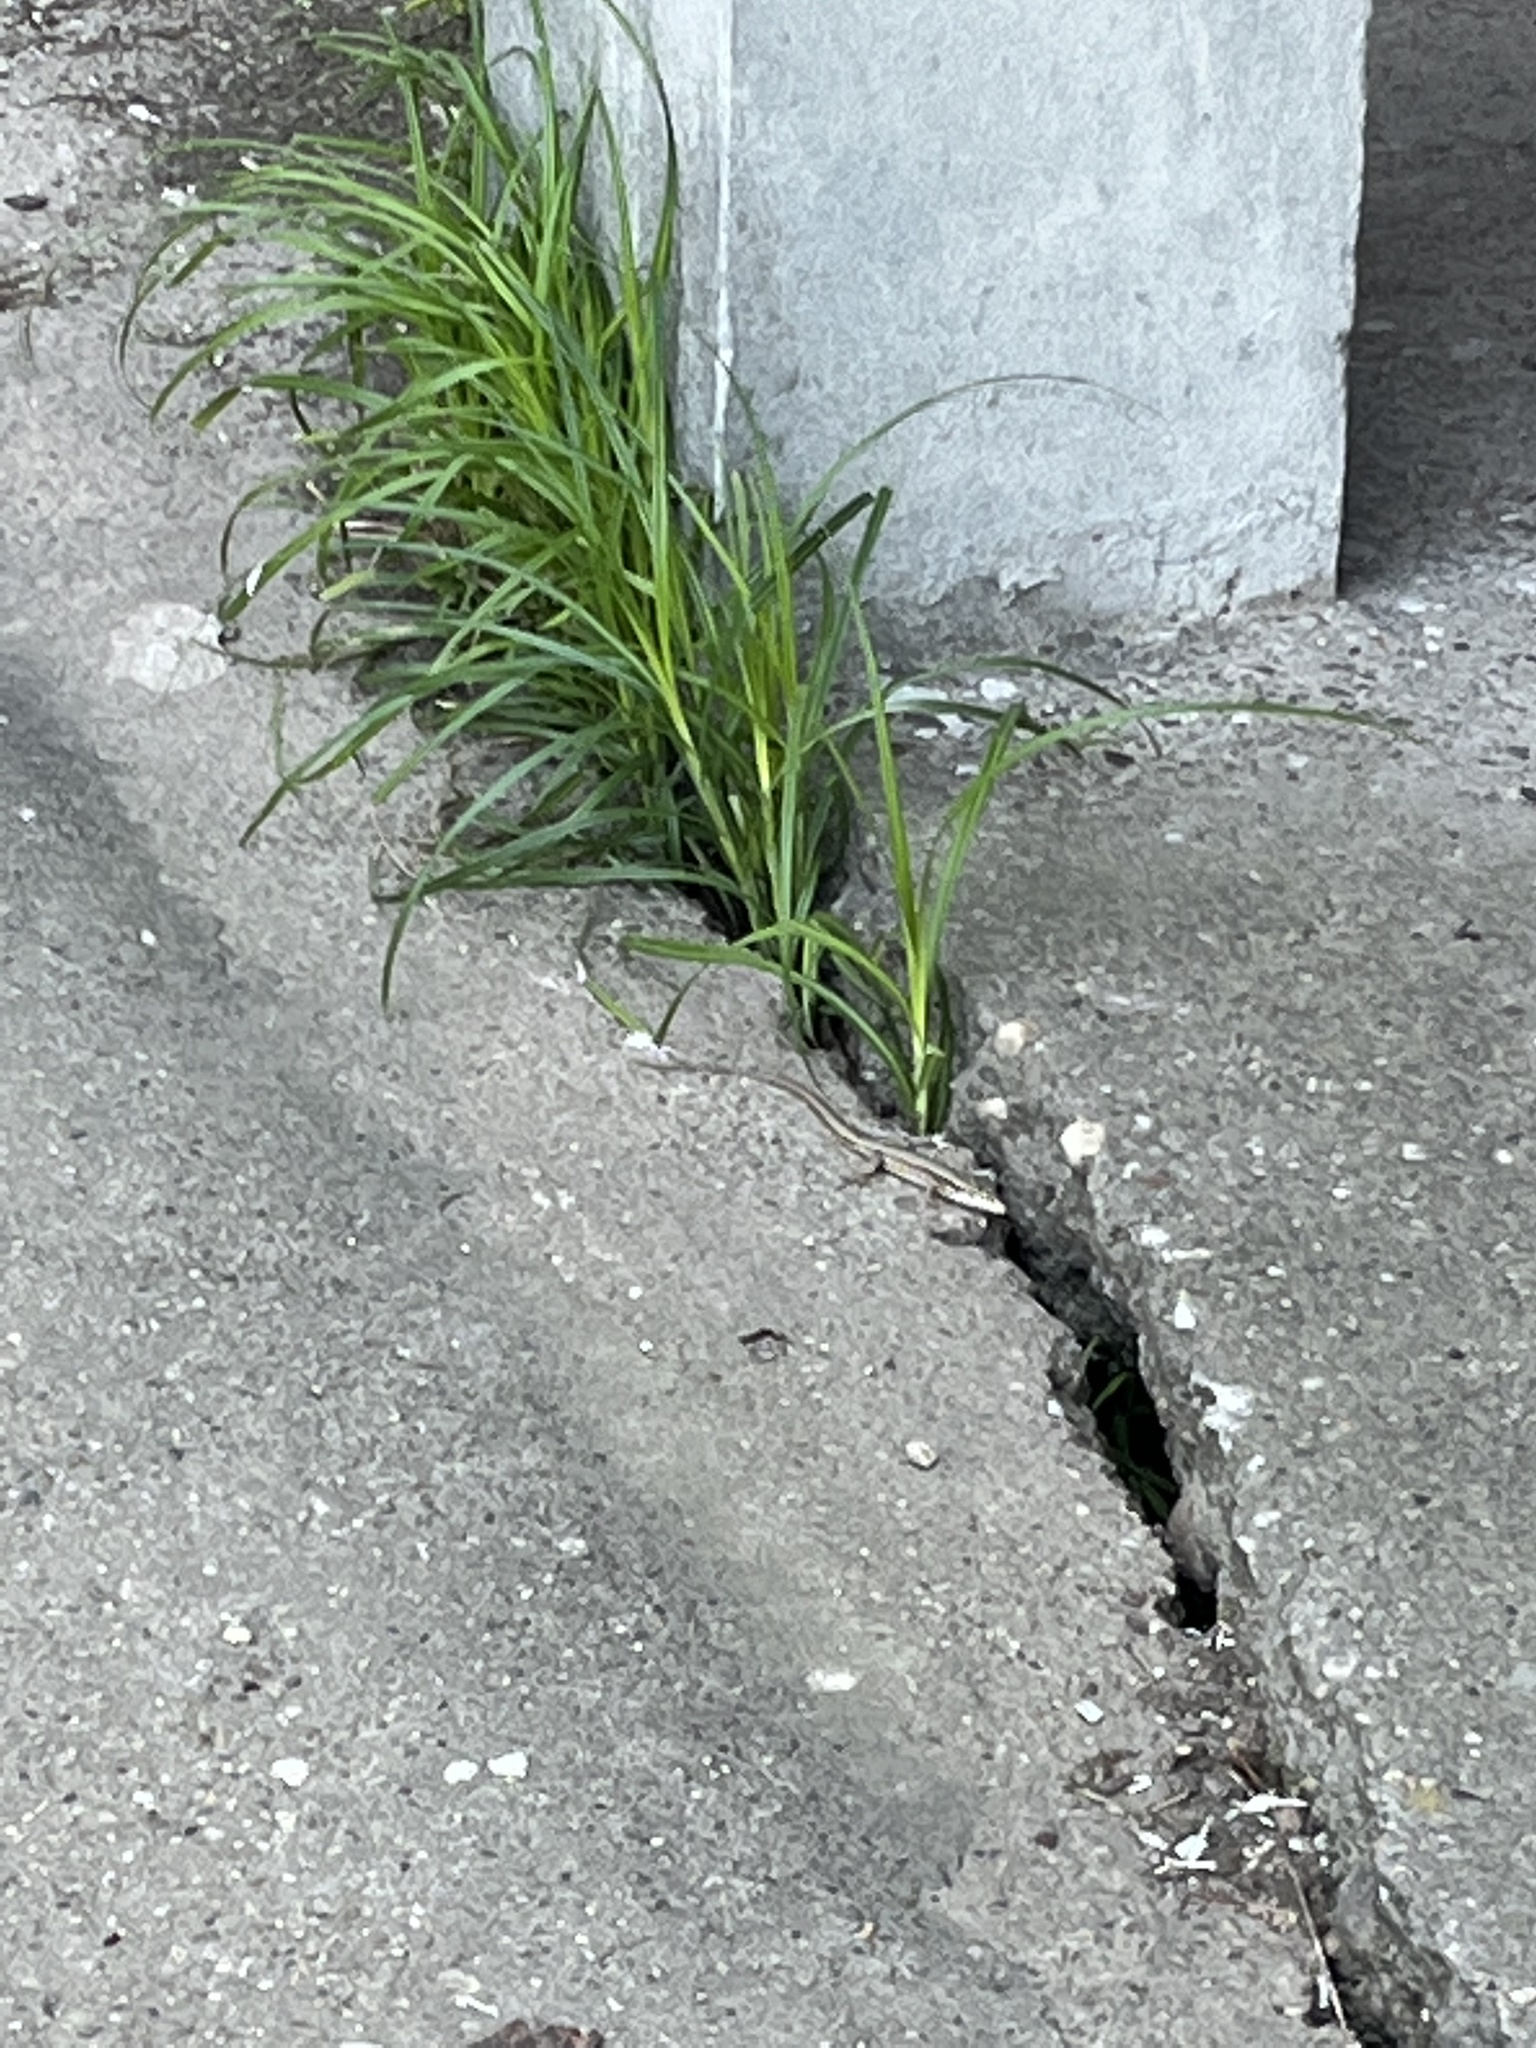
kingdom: Animalia
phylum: Chordata
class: Squamata
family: Lacertidae
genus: Podarcis
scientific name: Podarcis muralis
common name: Common wall lizard
